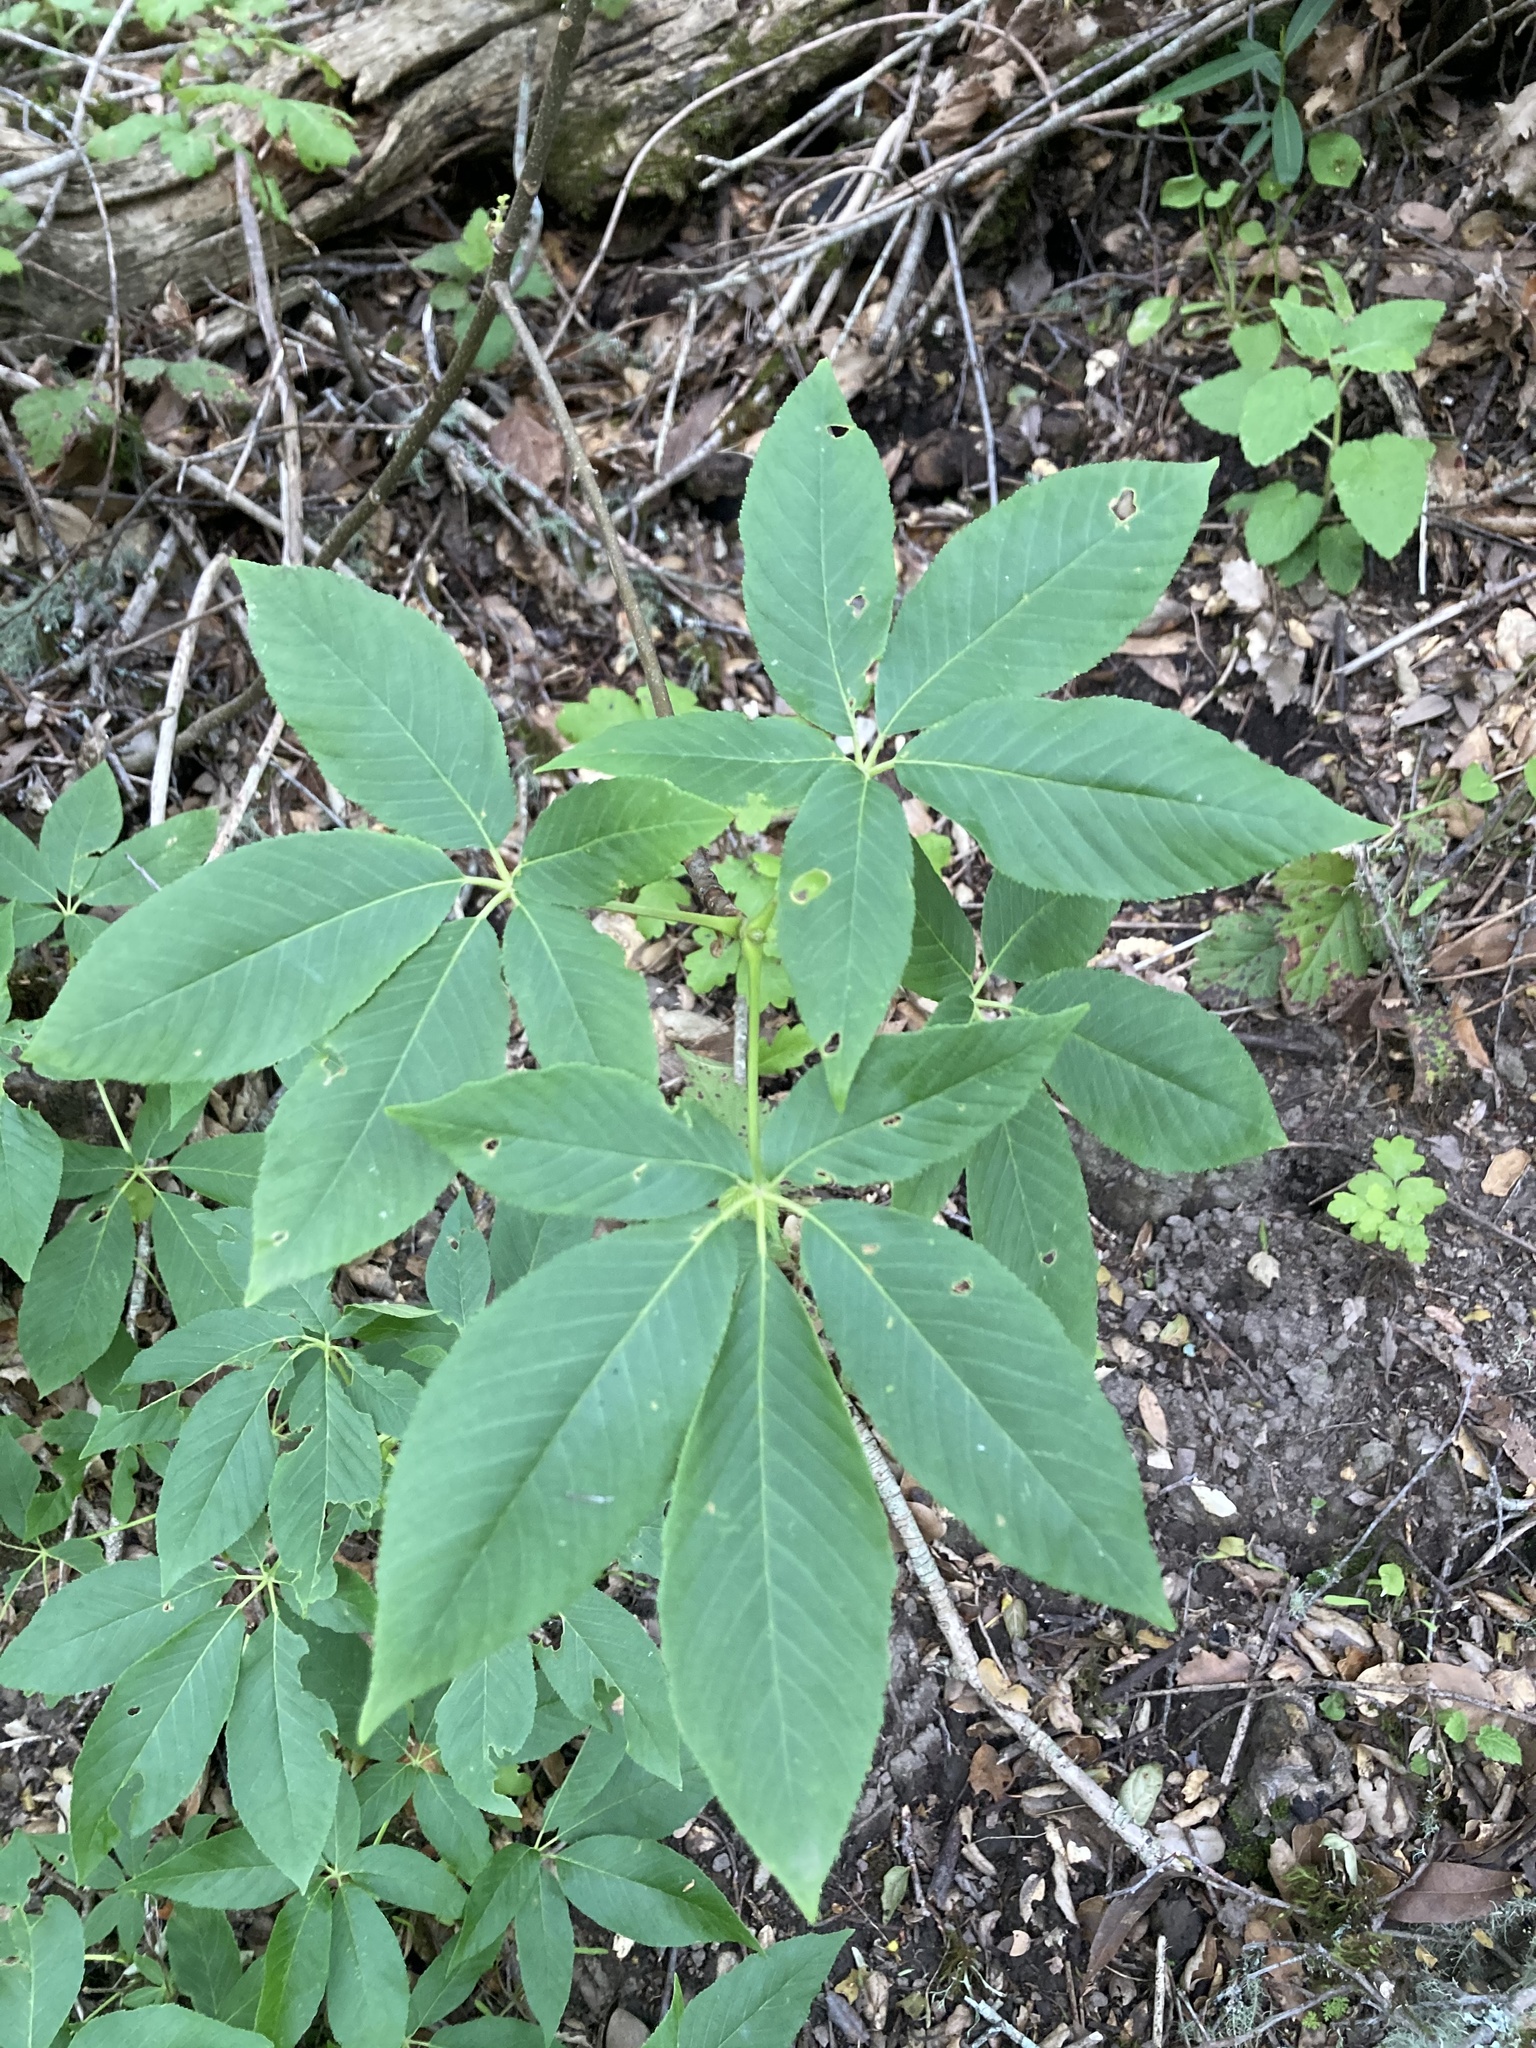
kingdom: Plantae
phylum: Tracheophyta
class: Magnoliopsida
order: Sapindales
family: Sapindaceae
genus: Aesculus
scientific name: Aesculus californica
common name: California buckeye
